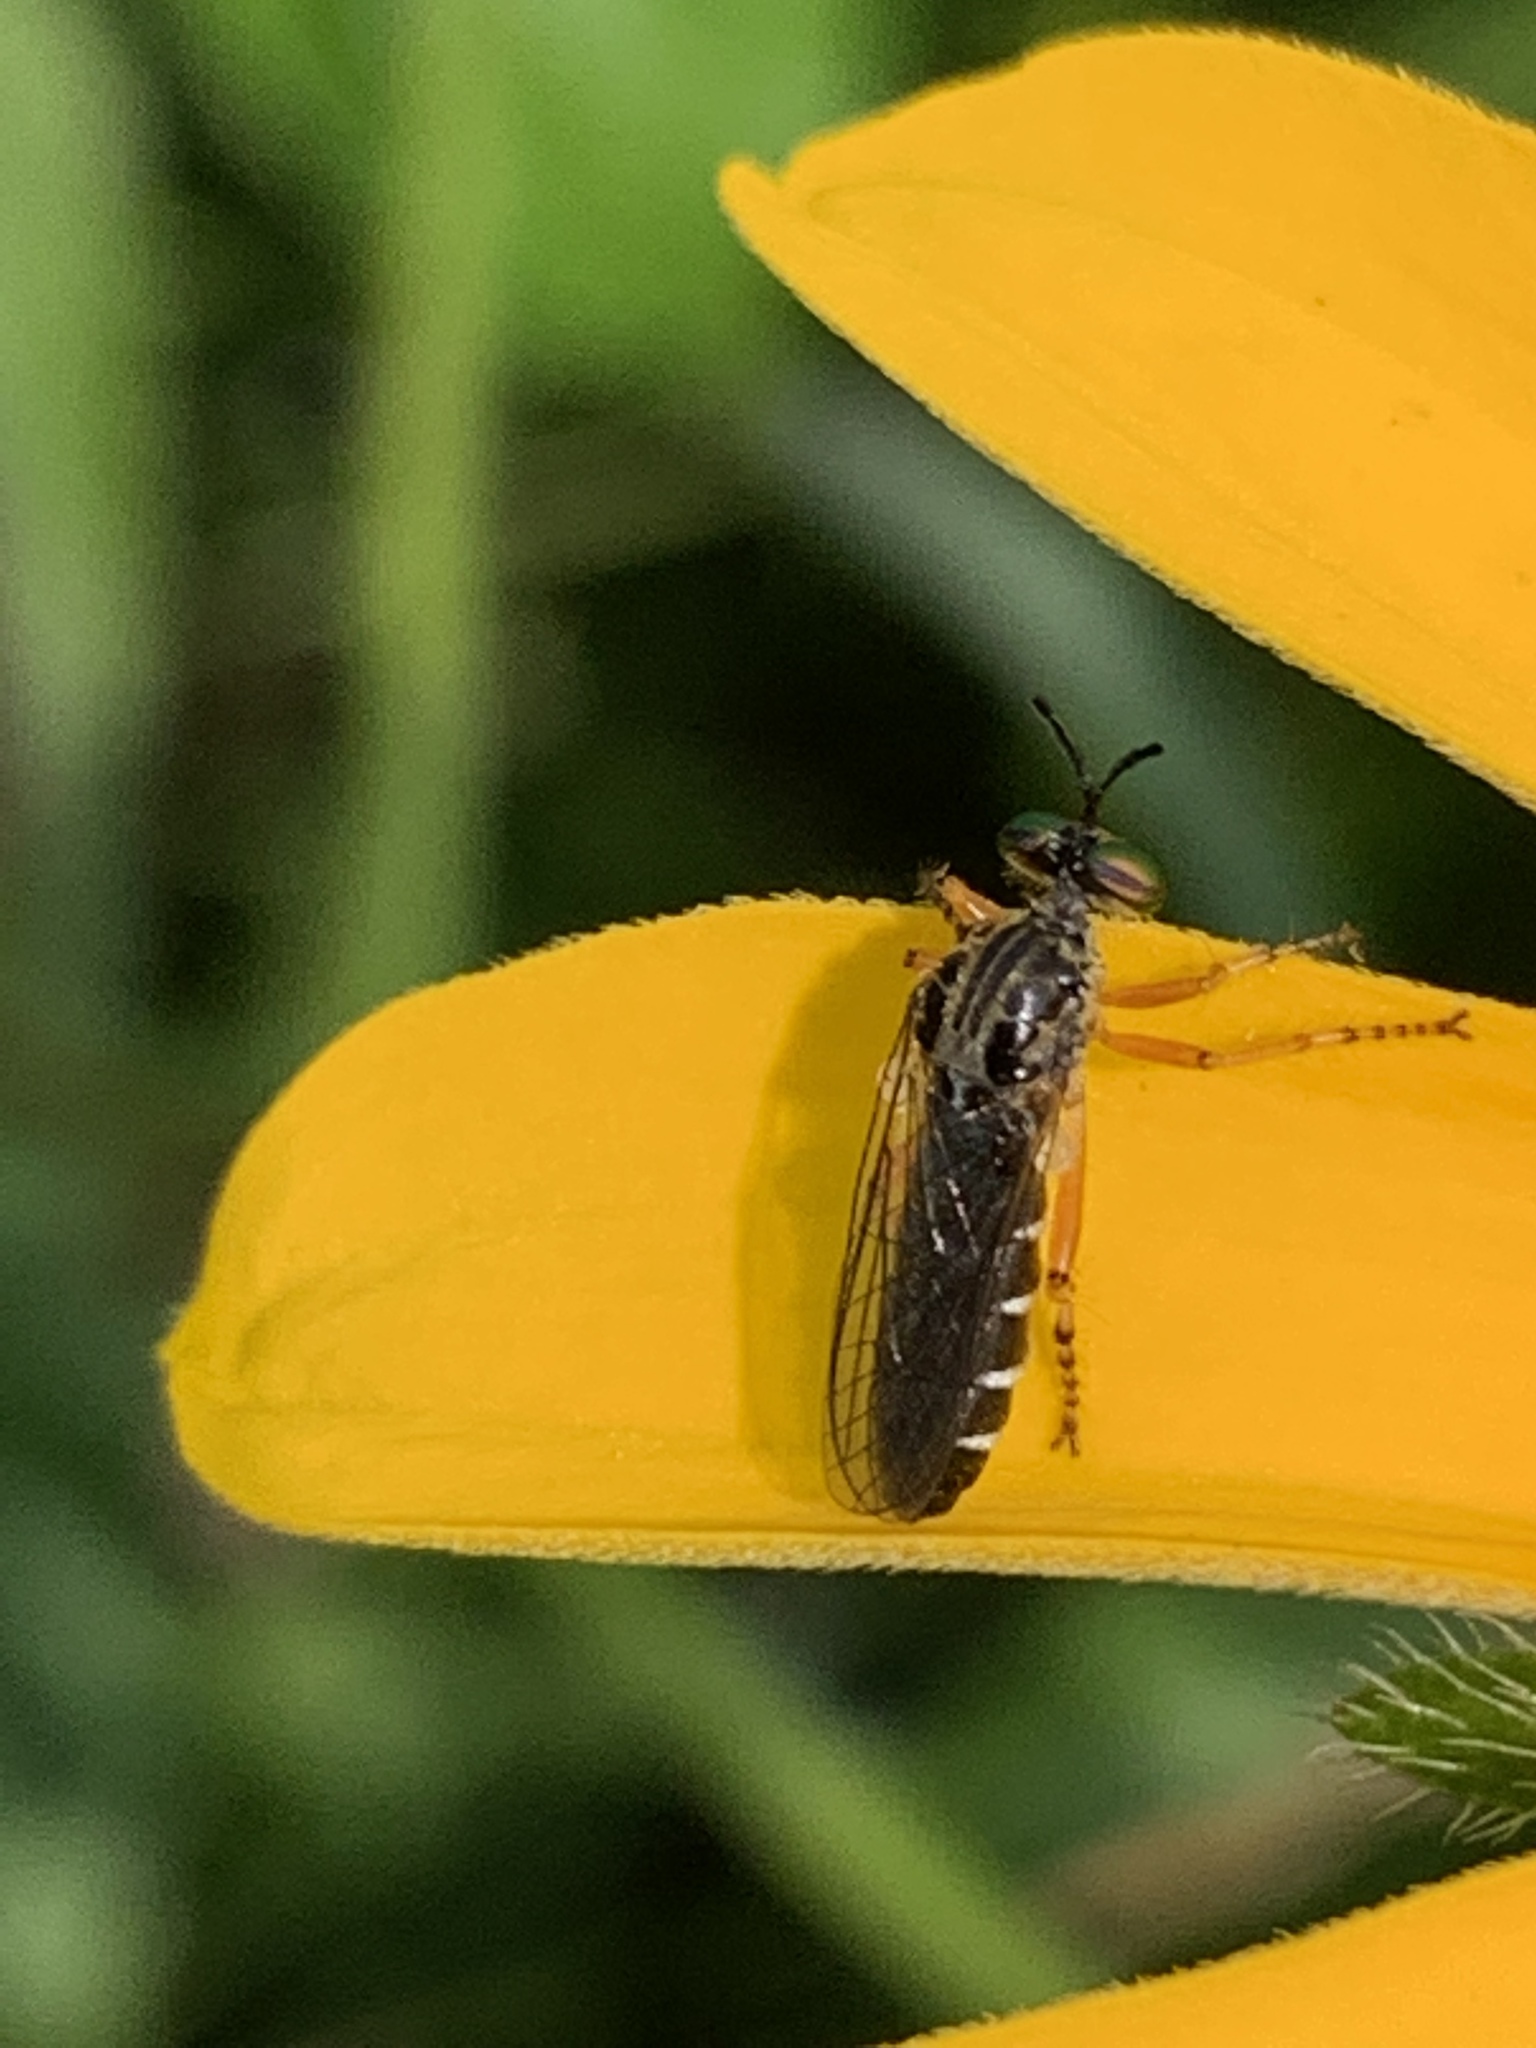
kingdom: Animalia
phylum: Arthropoda
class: Insecta
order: Diptera
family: Asilidae
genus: Taracticus
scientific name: Taracticus octopunctatus
